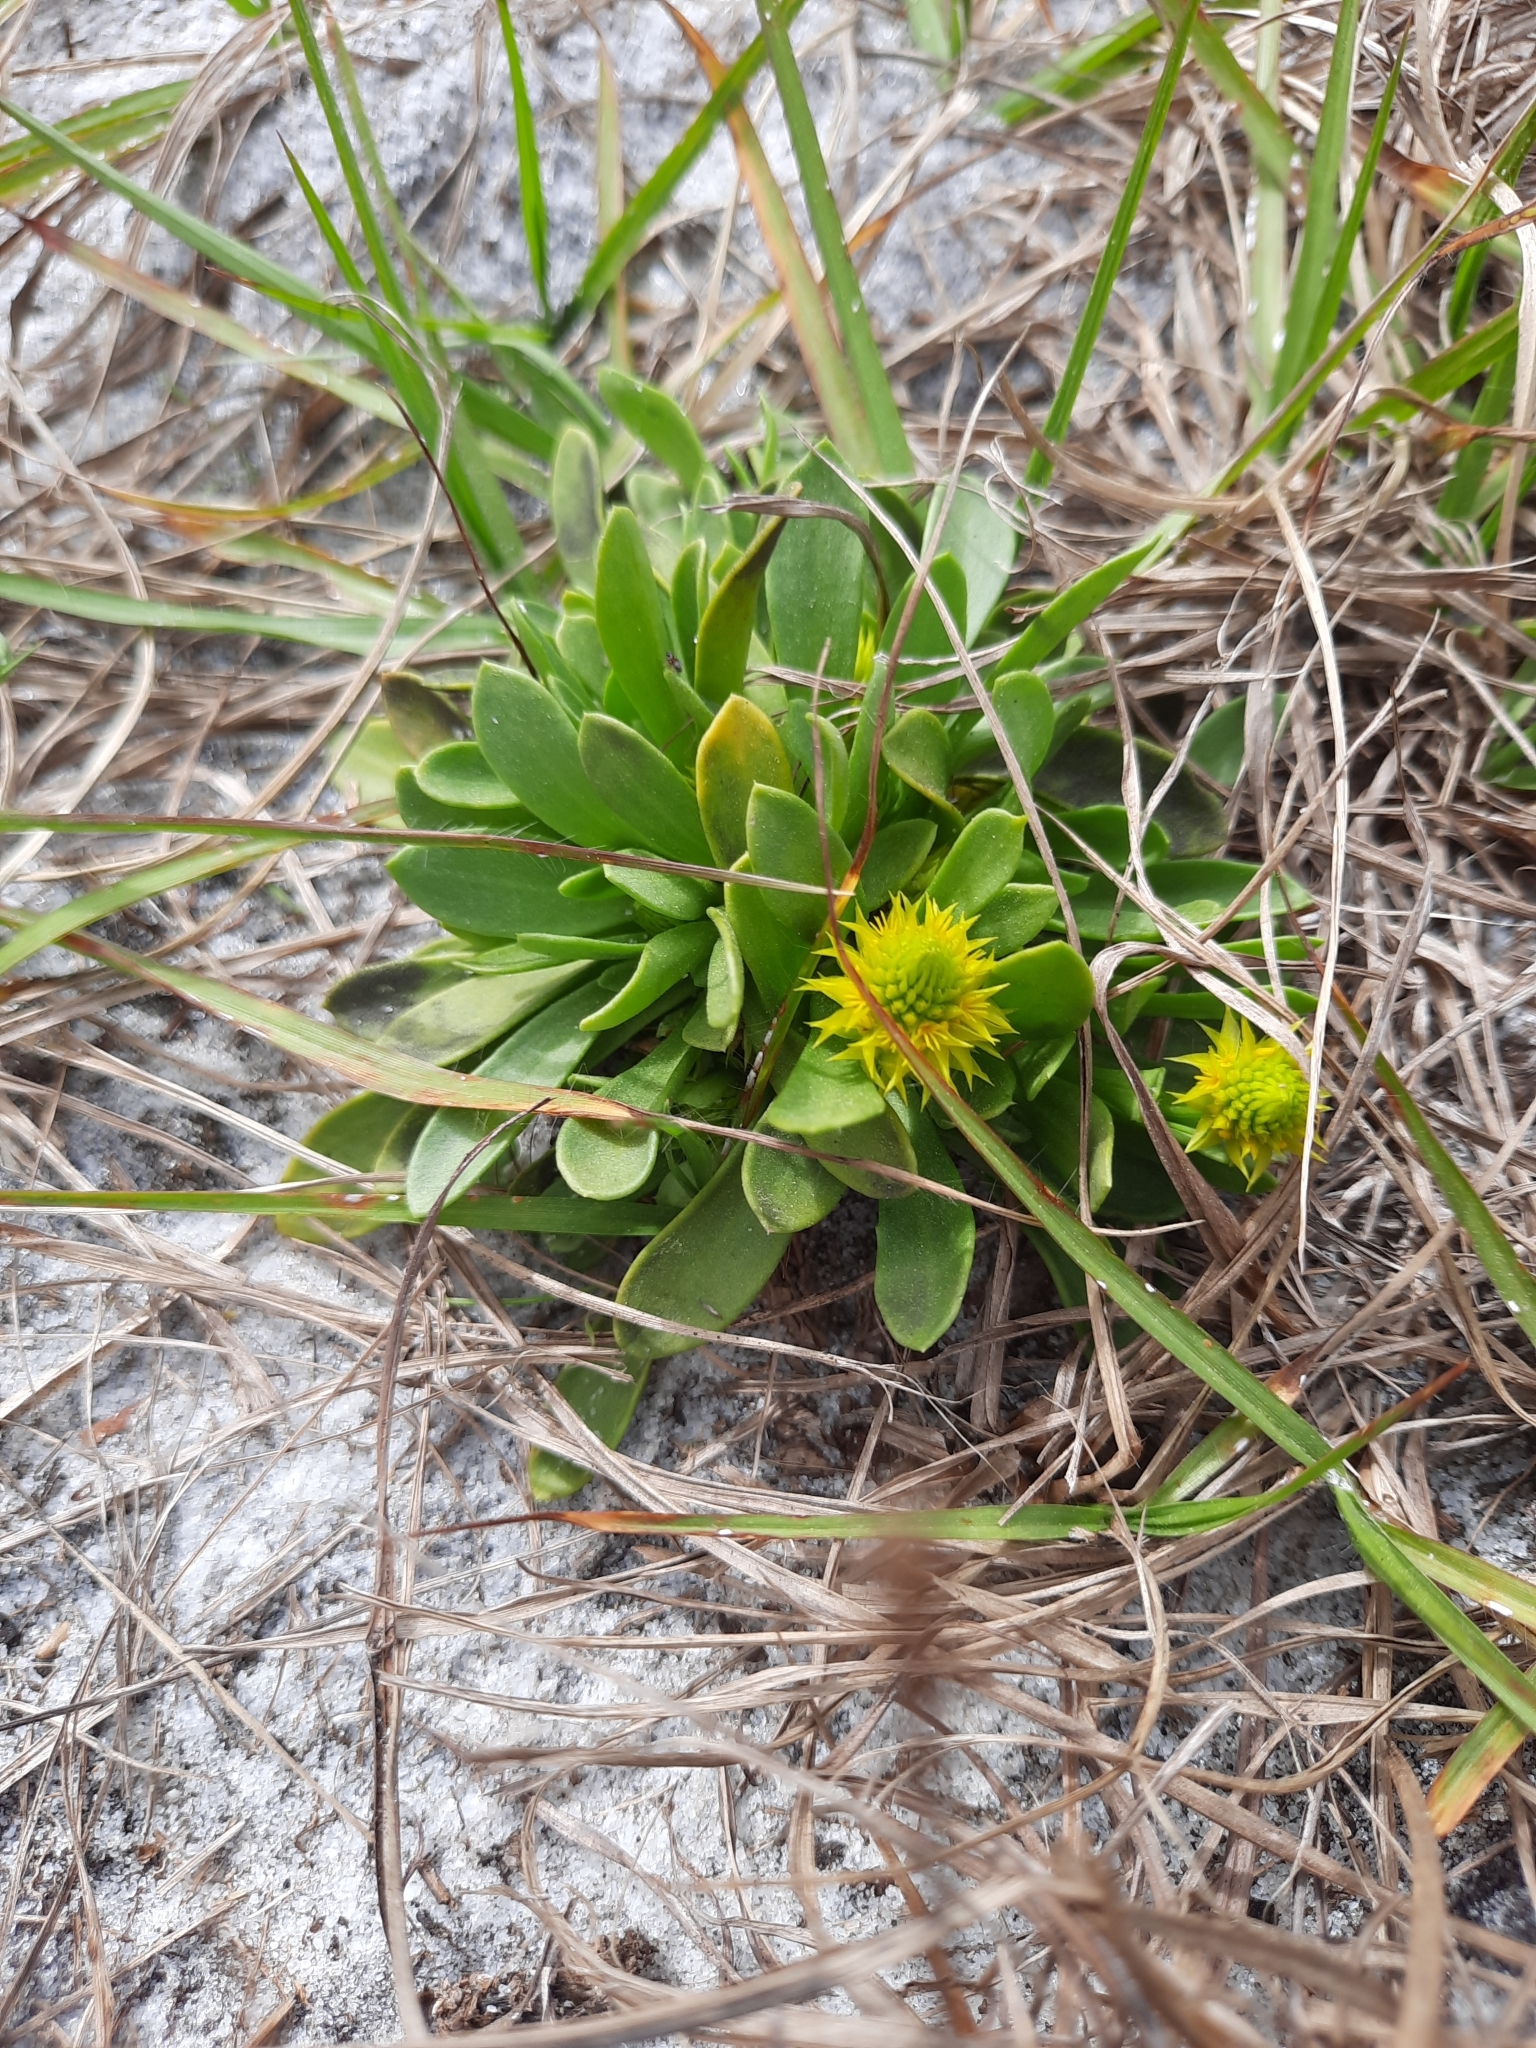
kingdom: Plantae
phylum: Tracheophyta
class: Magnoliopsida
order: Fabales
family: Polygalaceae
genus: Polygala
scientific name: Polygala nana
